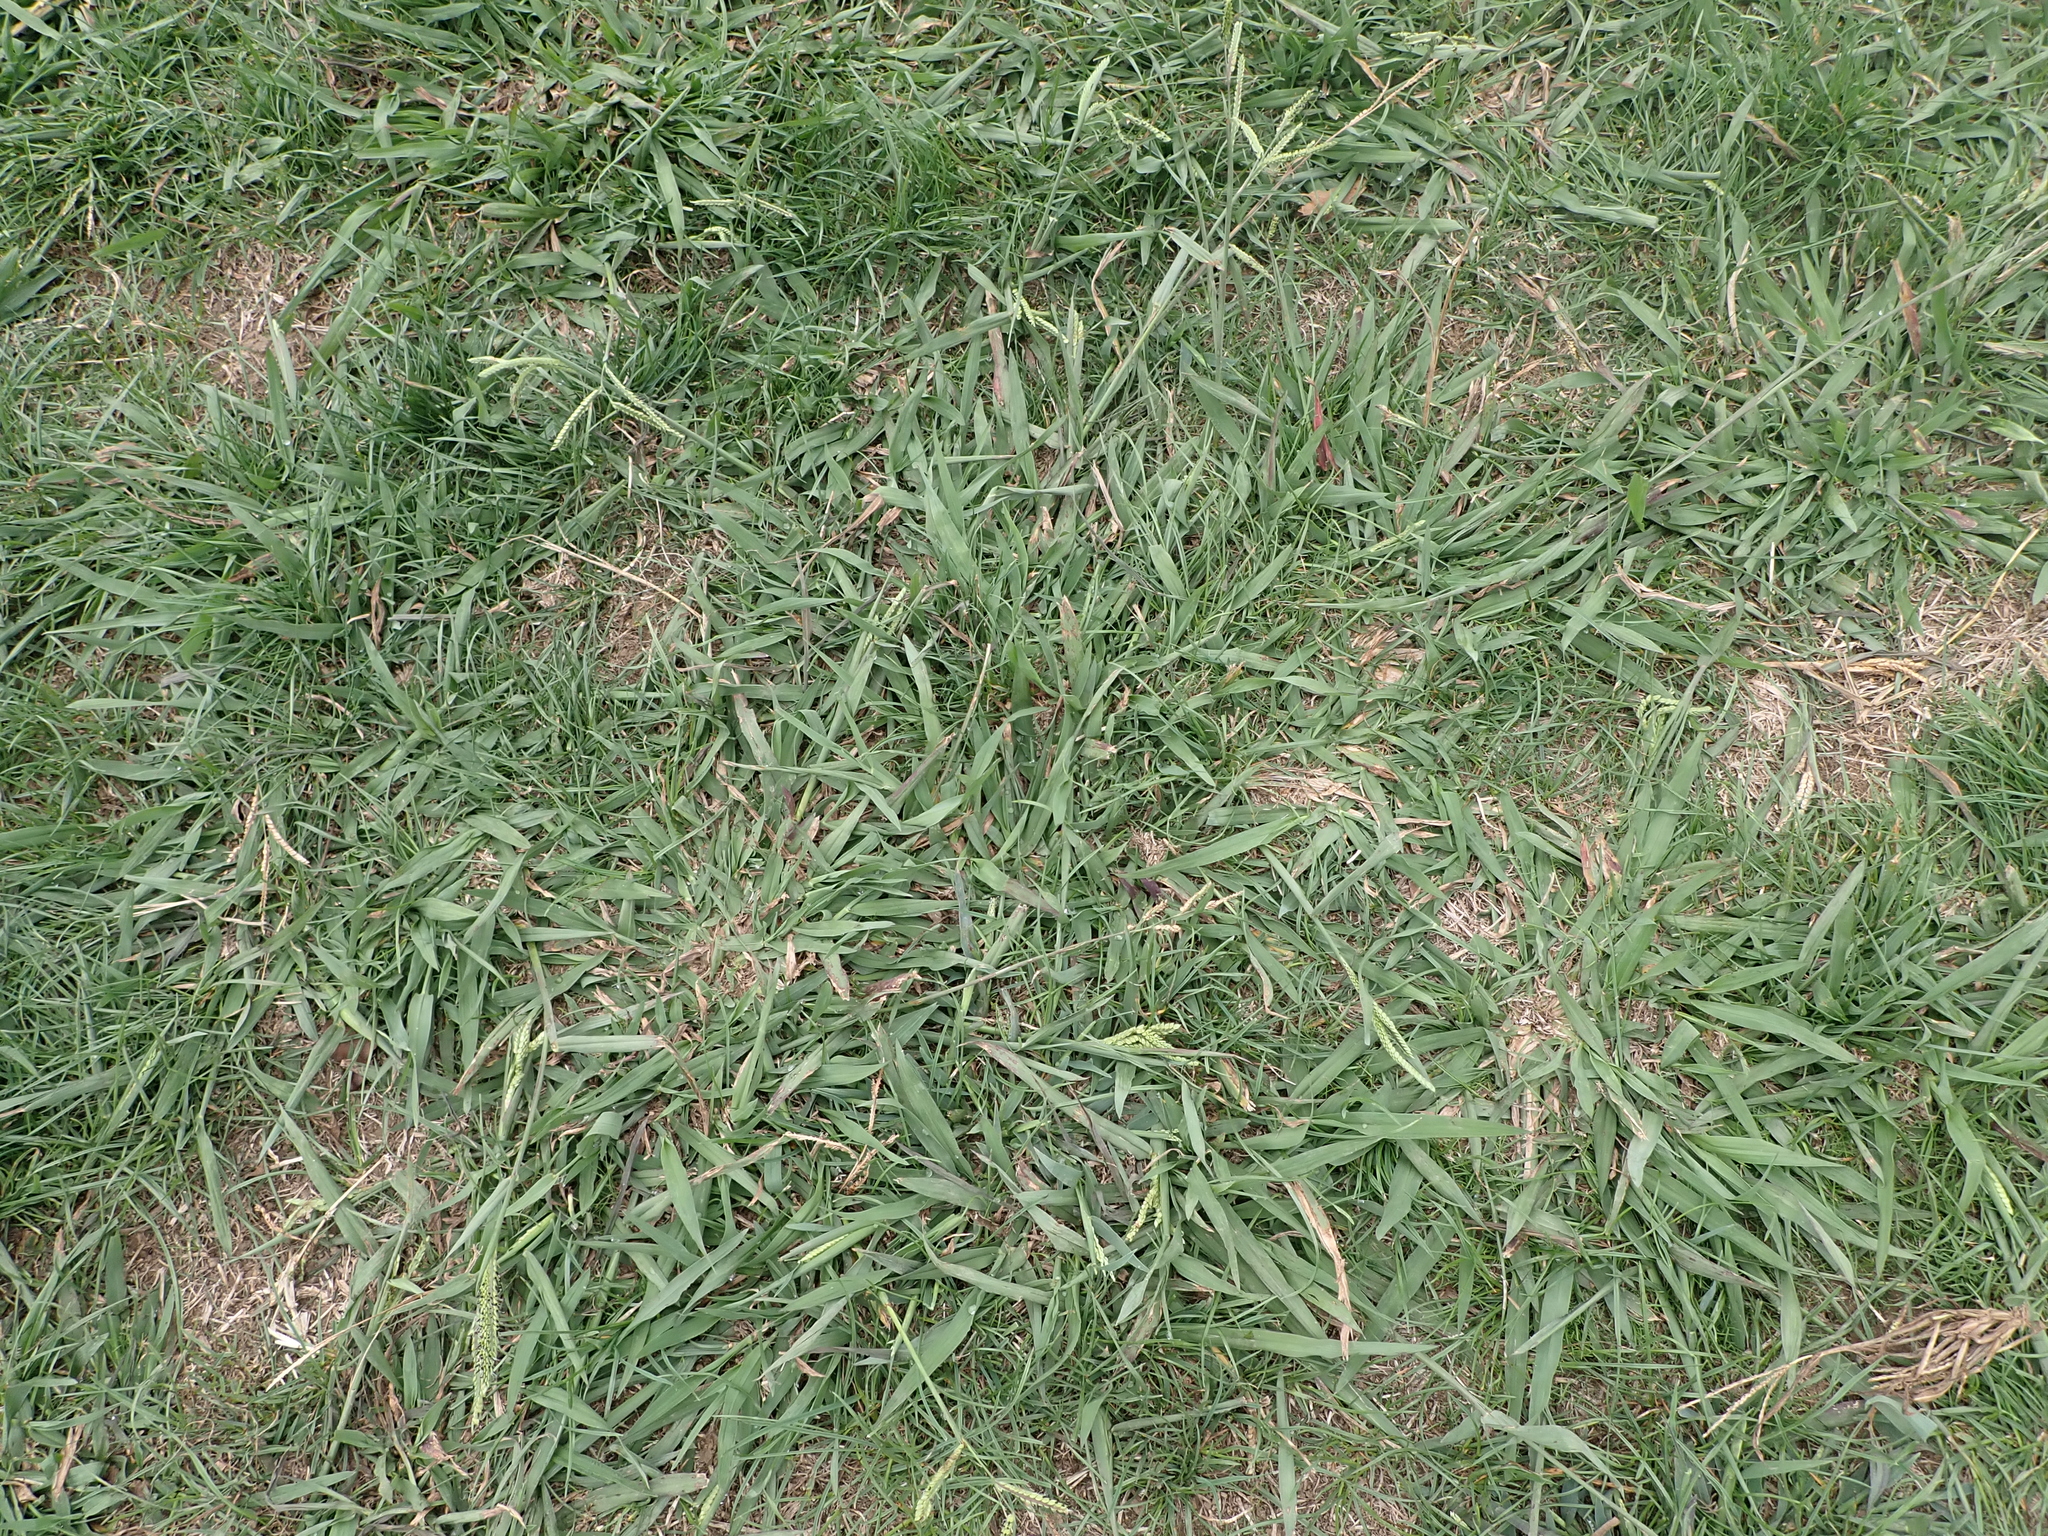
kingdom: Plantae
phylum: Tracheophyta
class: Liliopsida
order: Poales
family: Poaceae
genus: Paspalum
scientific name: Paspalum dilatatum
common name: Dallisgrass
